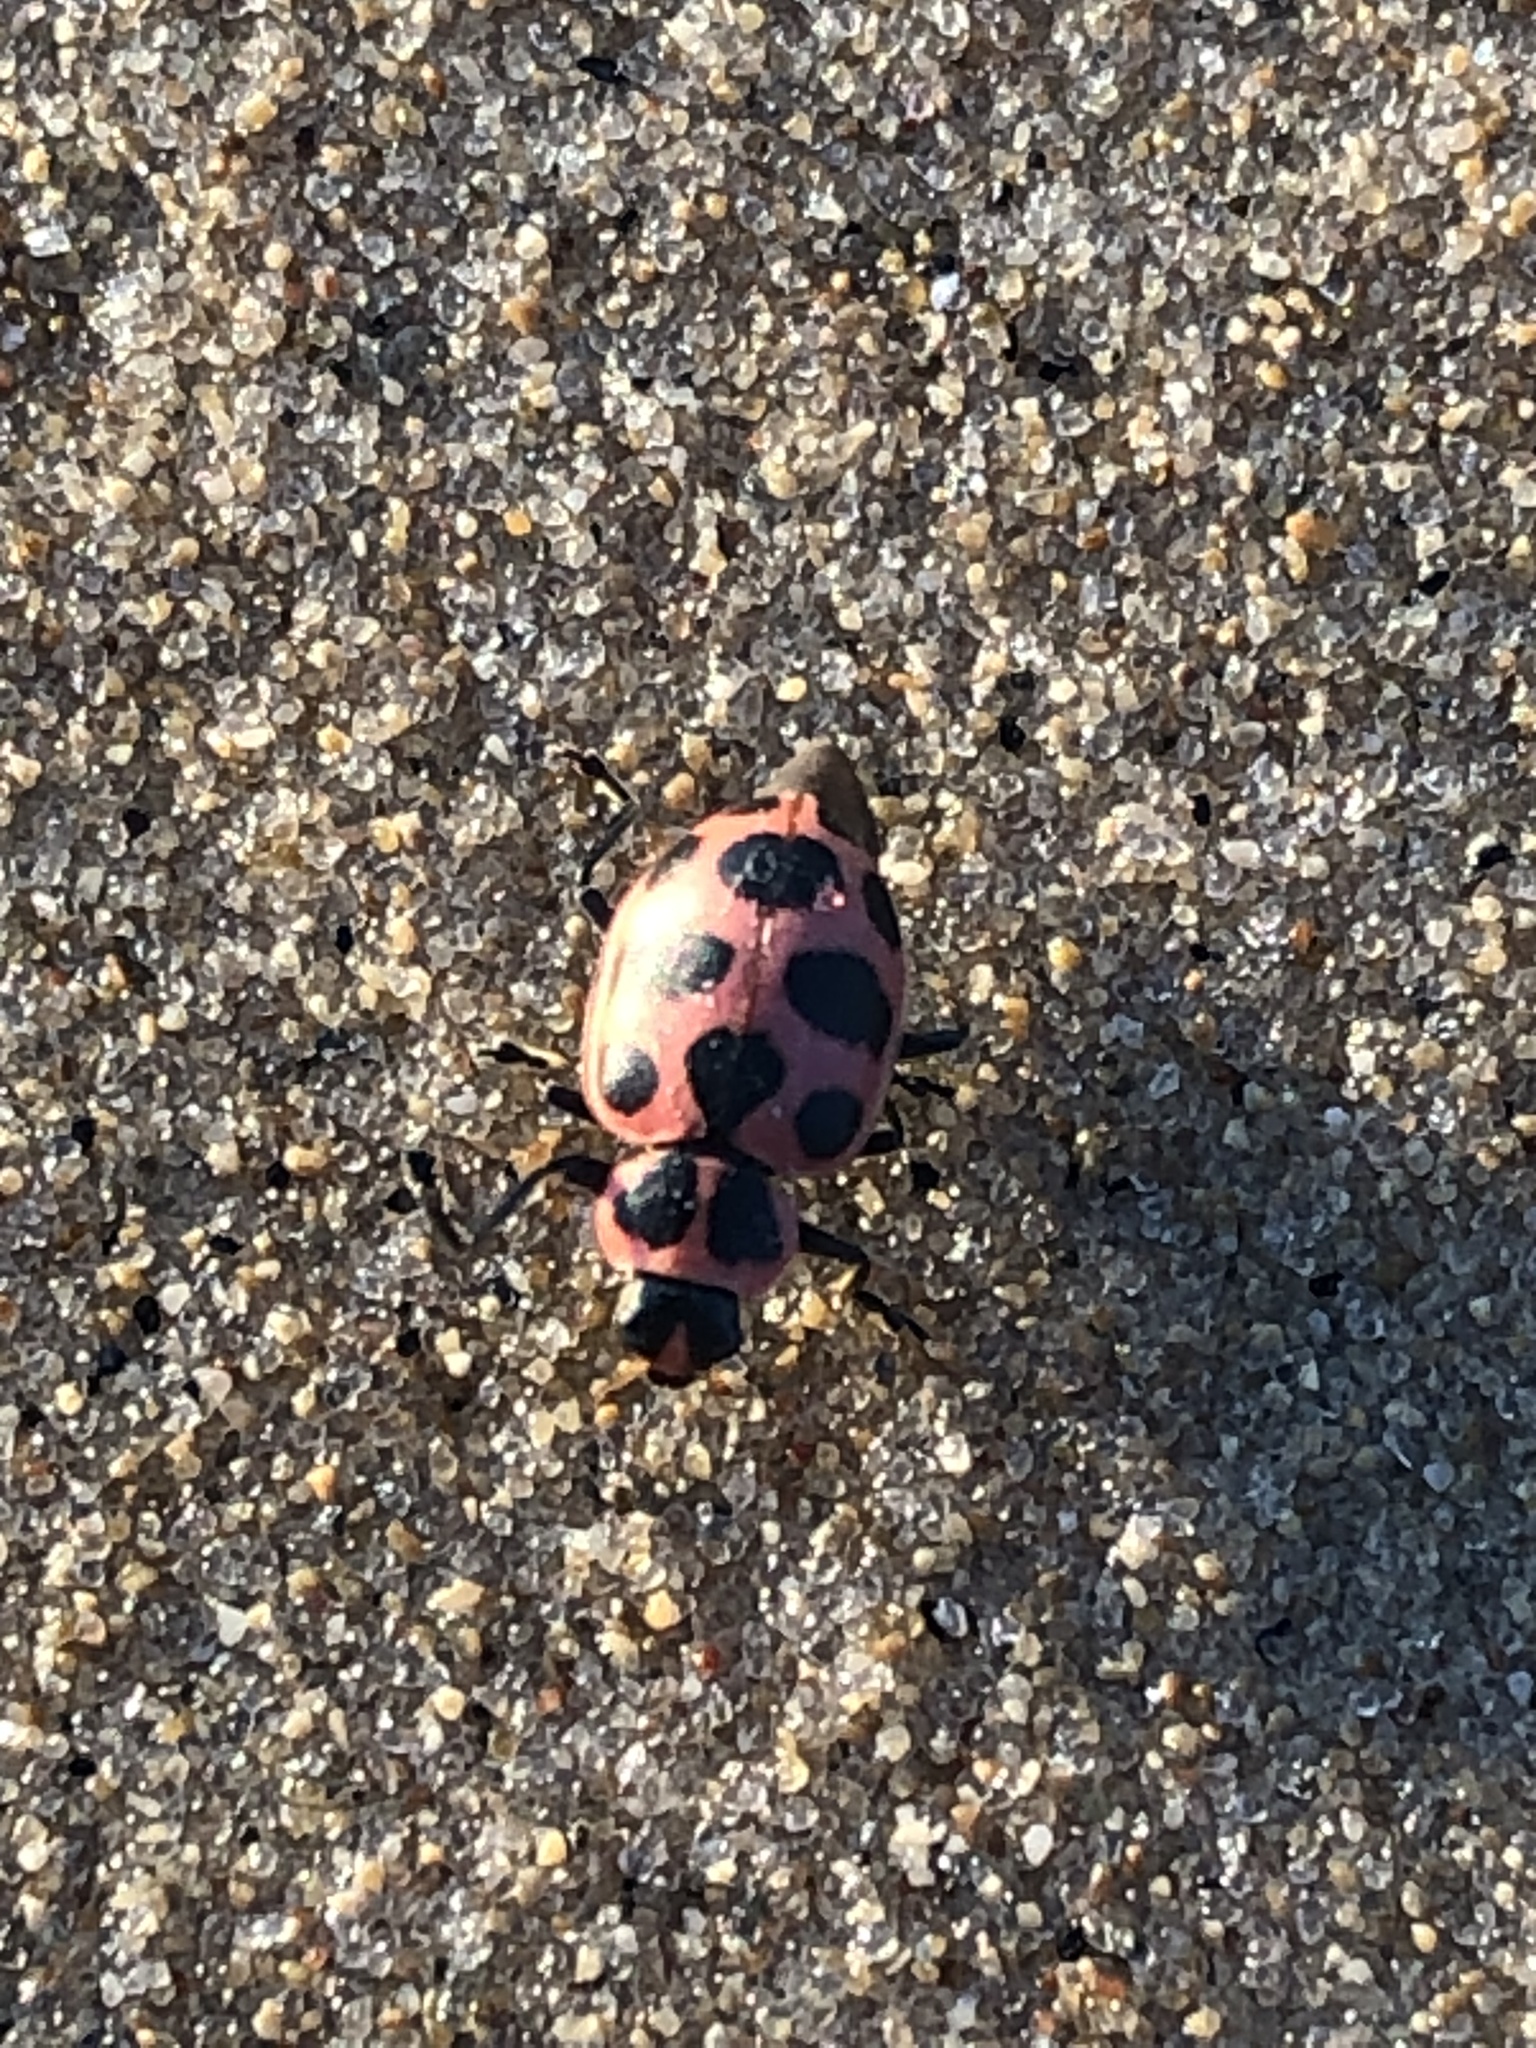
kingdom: Animalia
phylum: Arthropoda
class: Insecta
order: Coleoptera
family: Coccinellidae
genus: Coleomegilla
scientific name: Coleomegilla maculata
